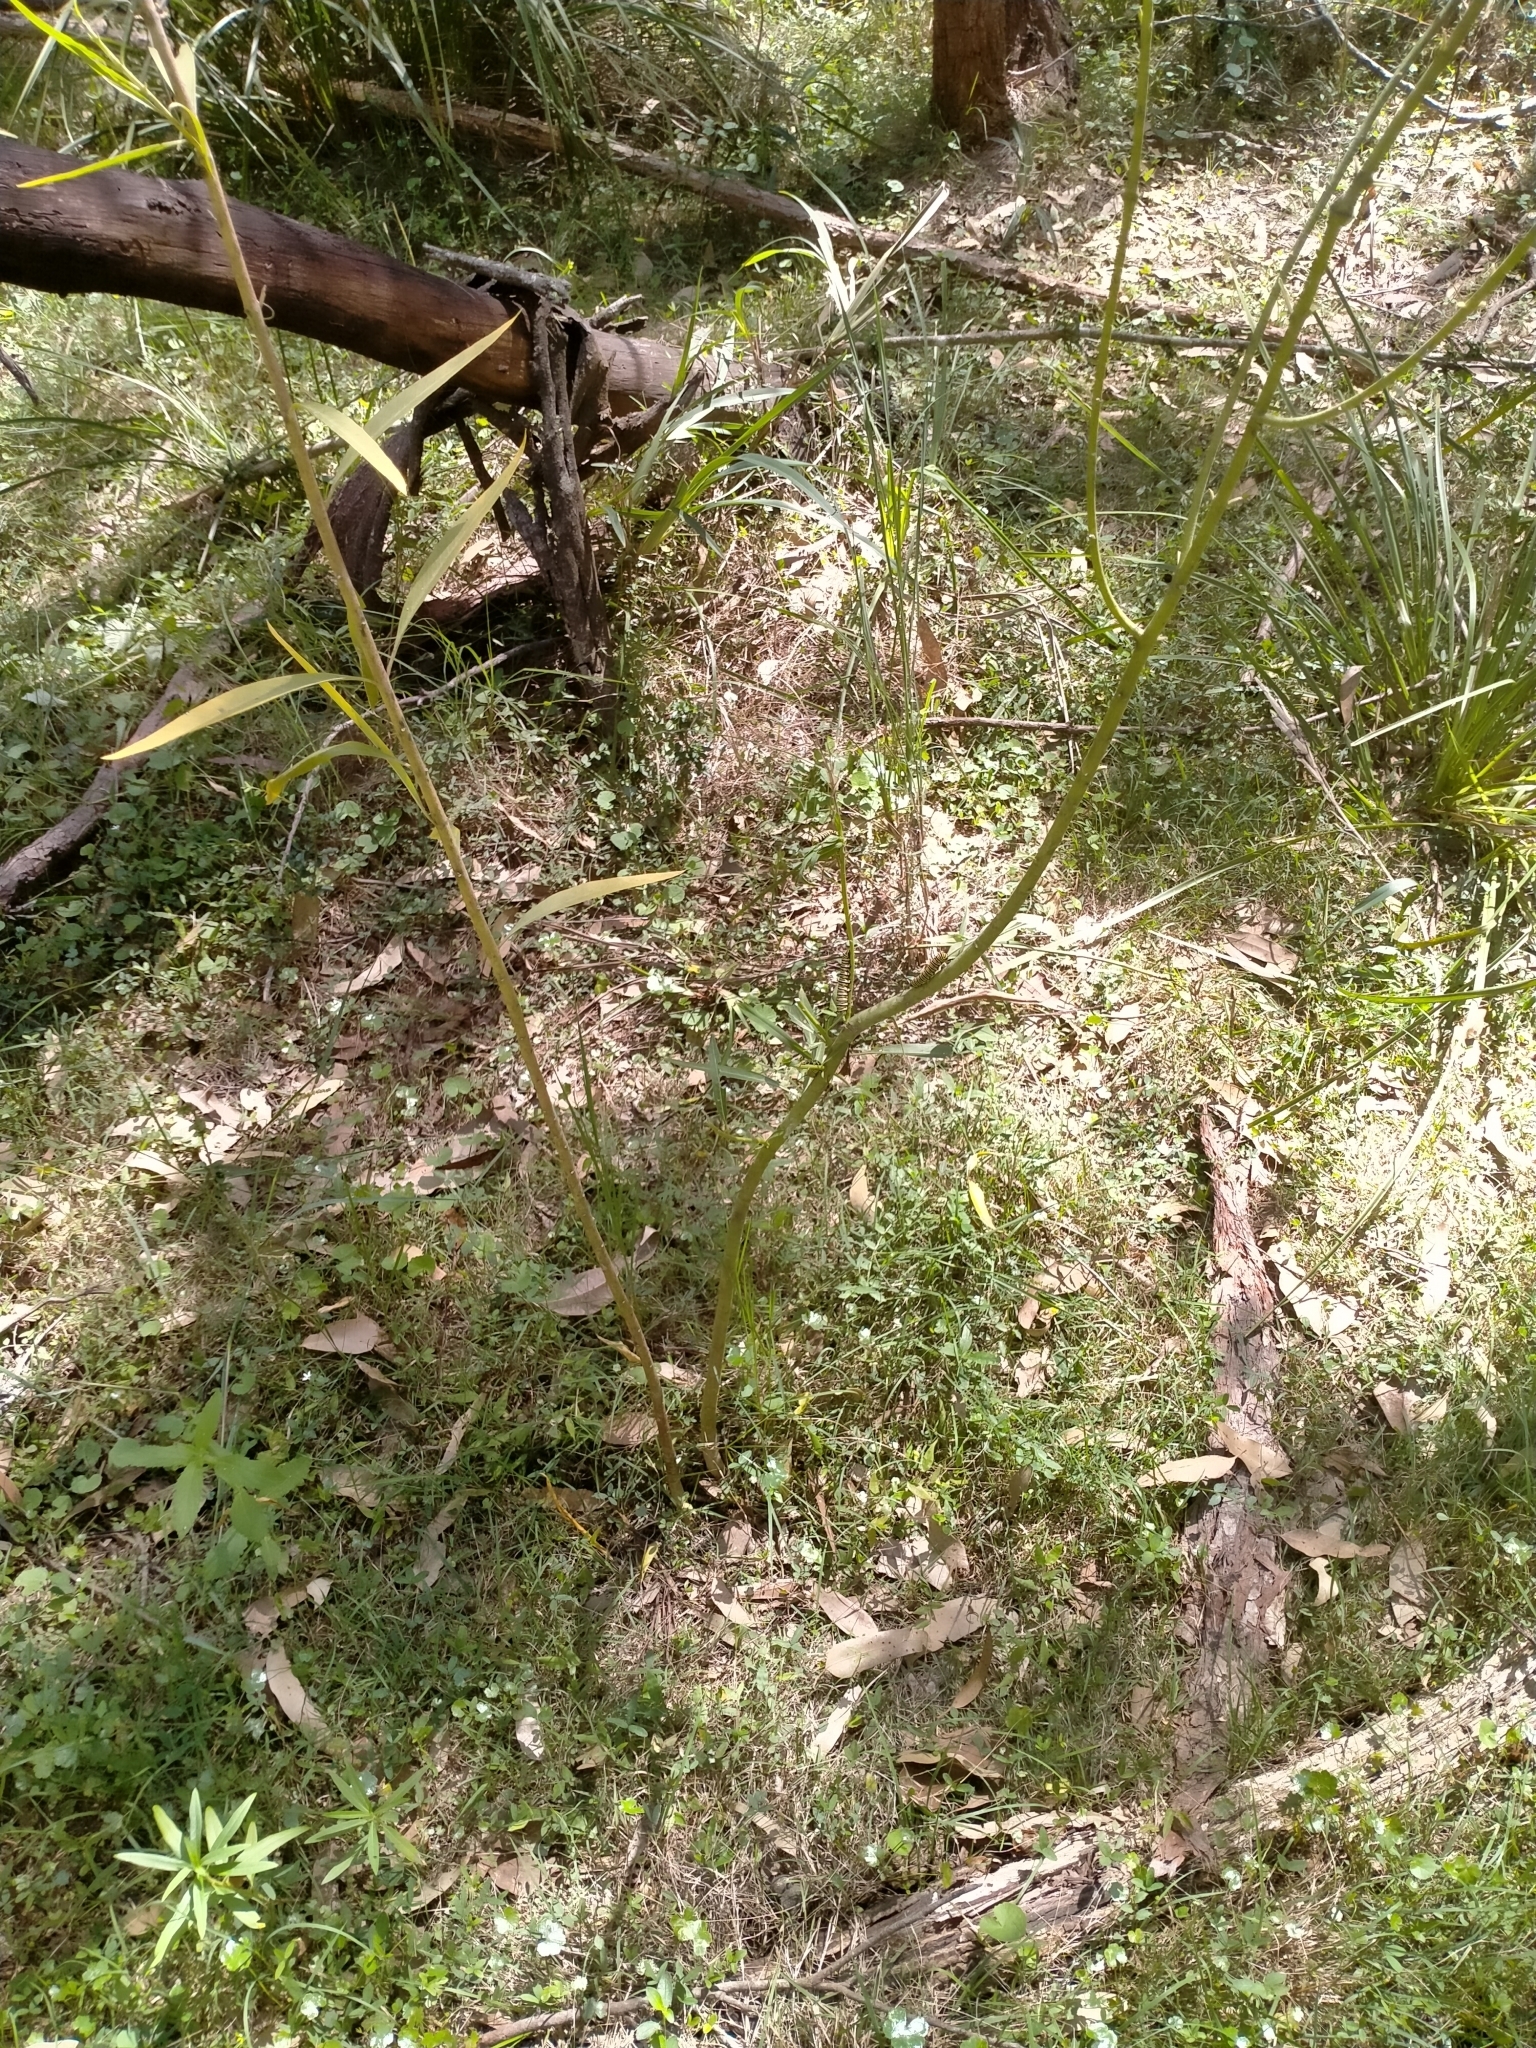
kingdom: Animalia
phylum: Arthropoda
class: Insecta
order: Lepidoptera
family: Nymphalidae
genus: Danaus
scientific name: Danaus plexippus
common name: Monarch
